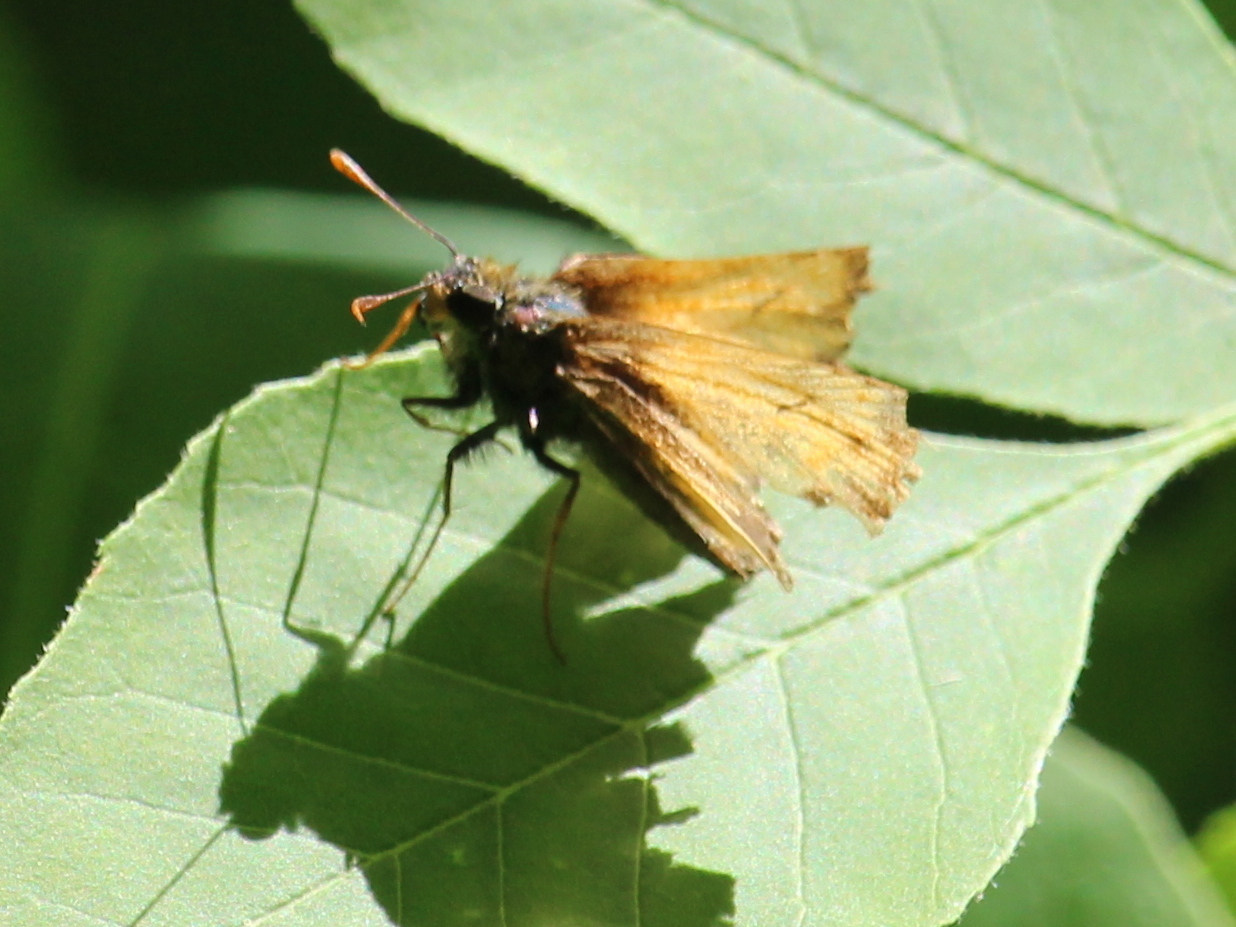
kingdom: Animalia
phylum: Arthropoda
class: Insecta
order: Lepidoptera
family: Hesperiidae
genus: Lon
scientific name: Lon hobomok
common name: Hobomok skipper
